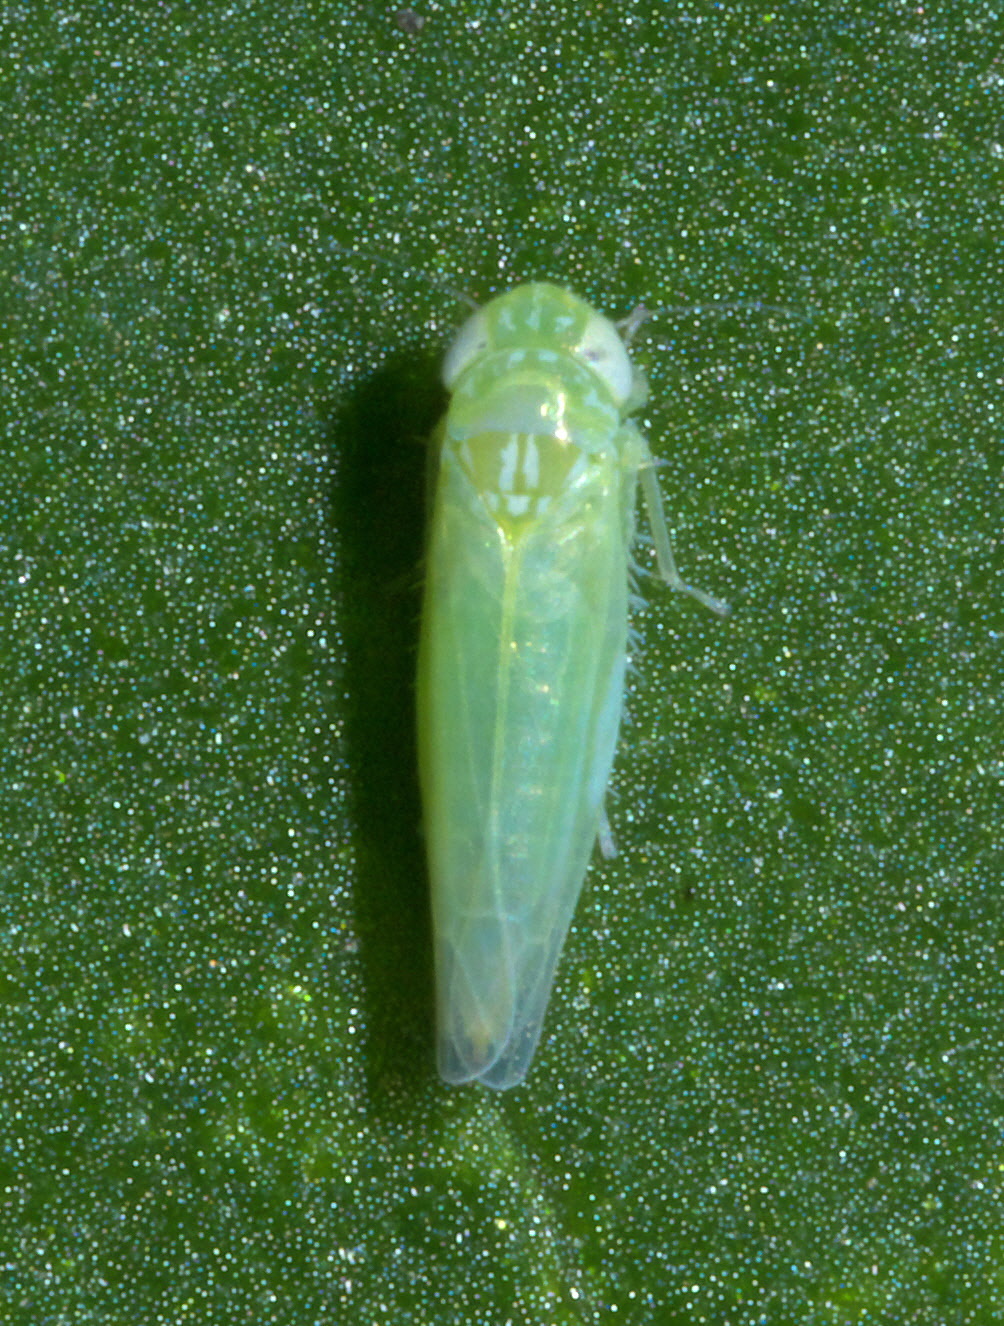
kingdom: Animalia
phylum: Arthropoda
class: Insecta
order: Hemiptera
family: Cicadellidae
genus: Empoasca
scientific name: Empoasca fabae
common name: Potato leafhopper
